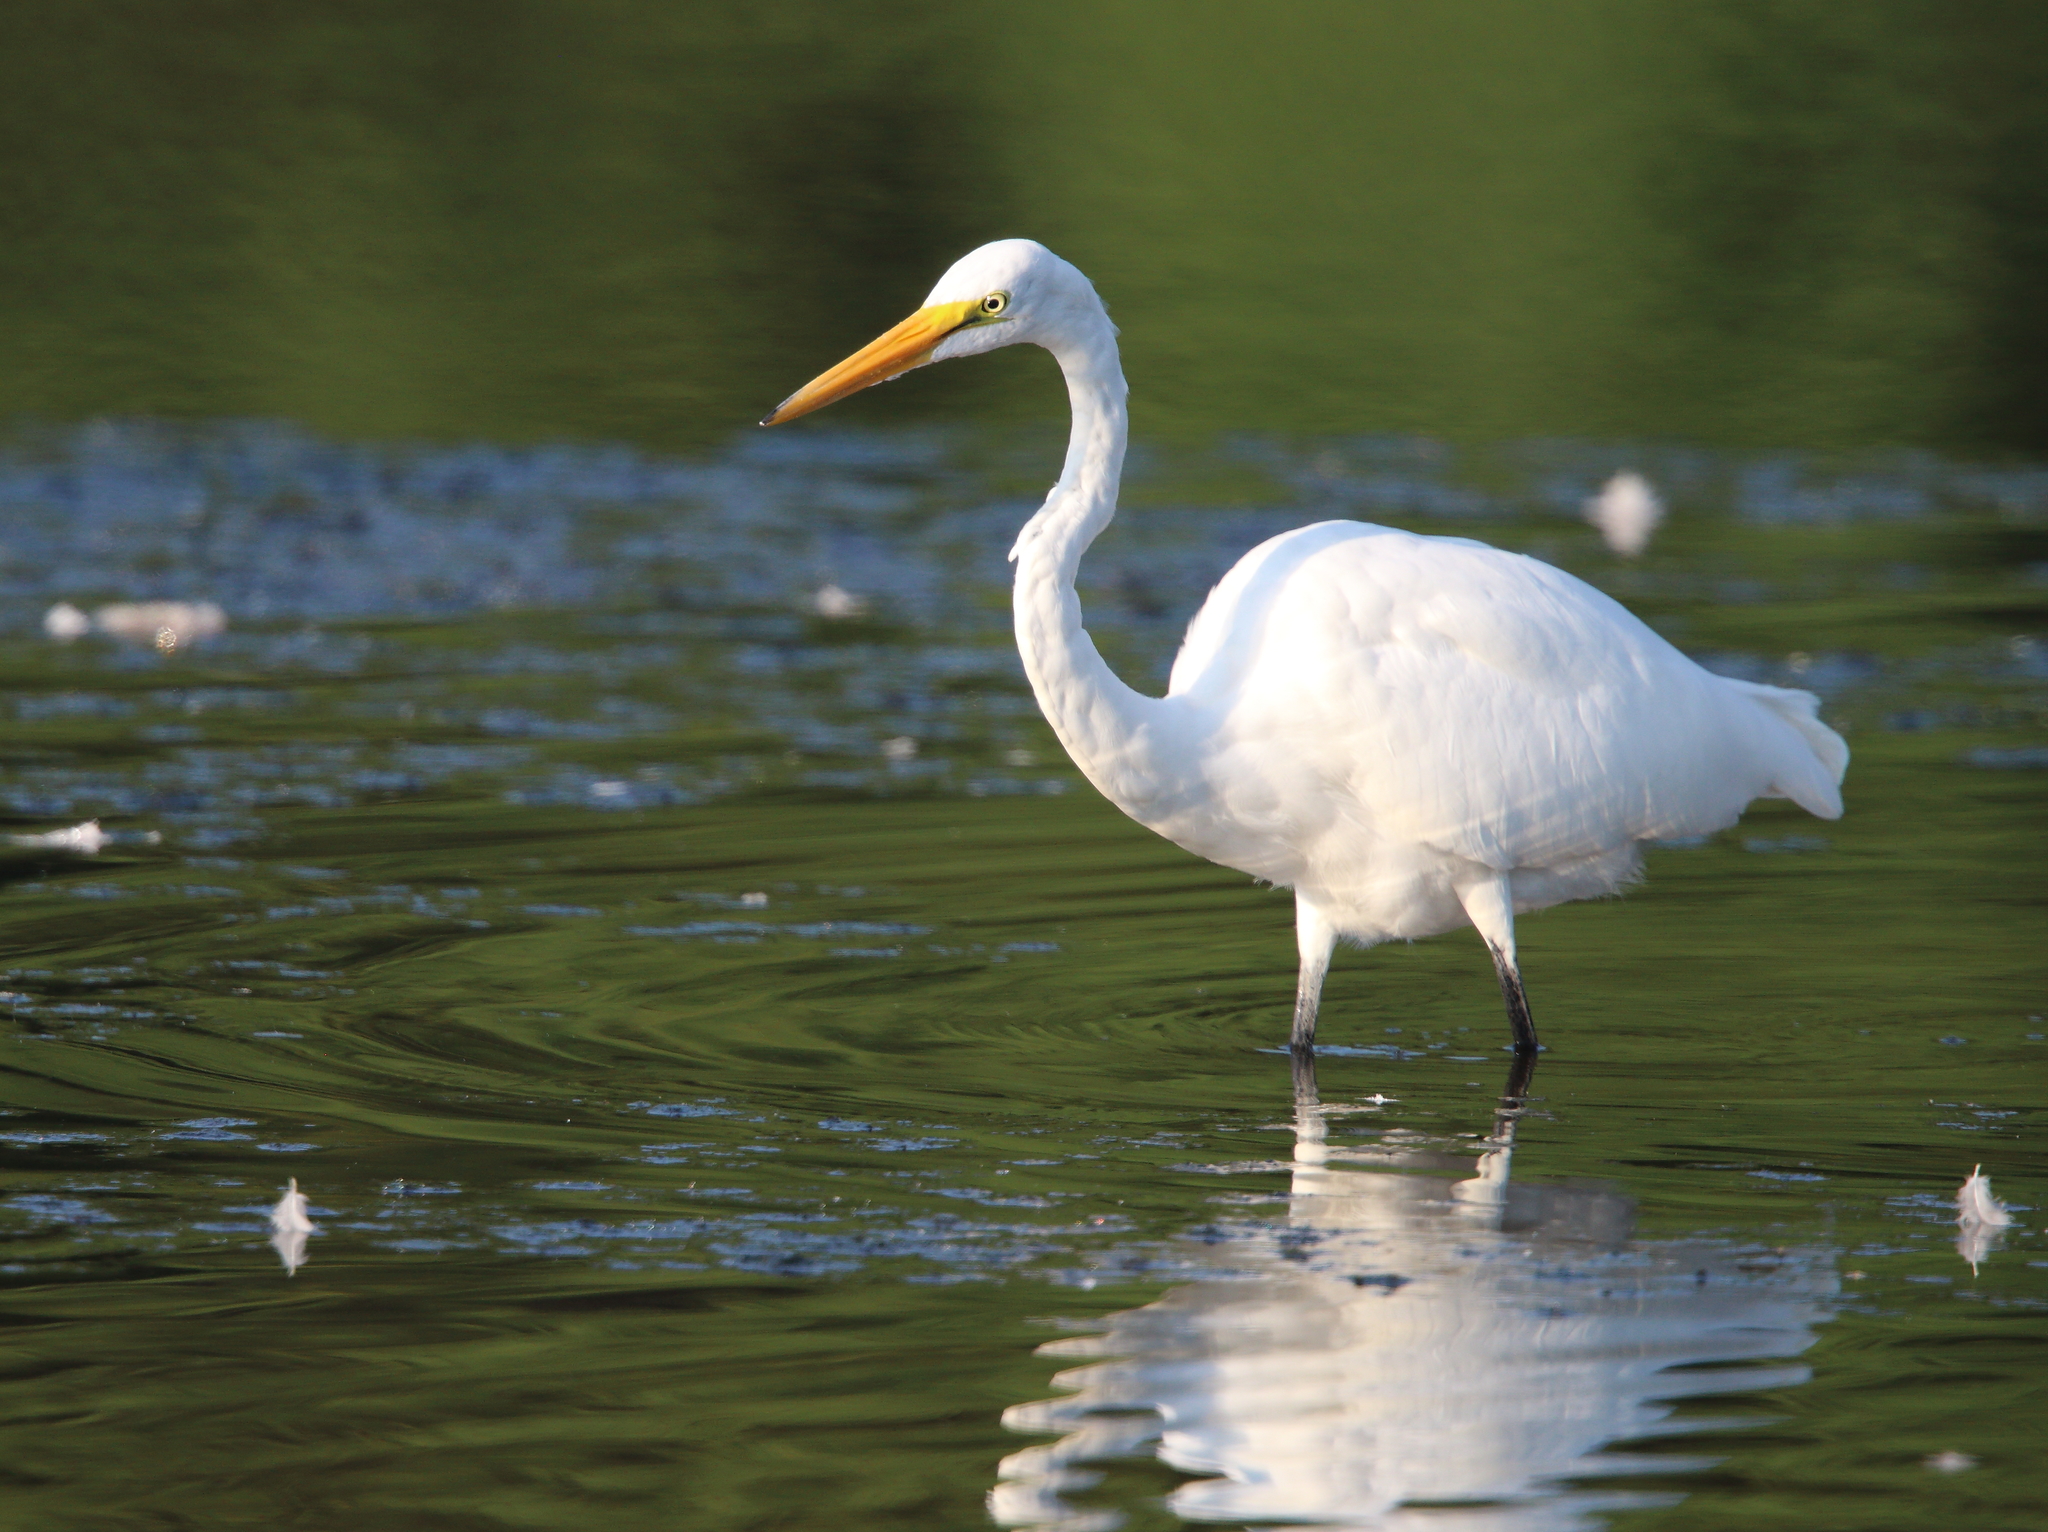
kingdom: Animalia
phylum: Chordata
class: Aves
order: Pelecaniformes
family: Ardeidae
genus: Ardea
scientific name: Ardea alba
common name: Great egret
